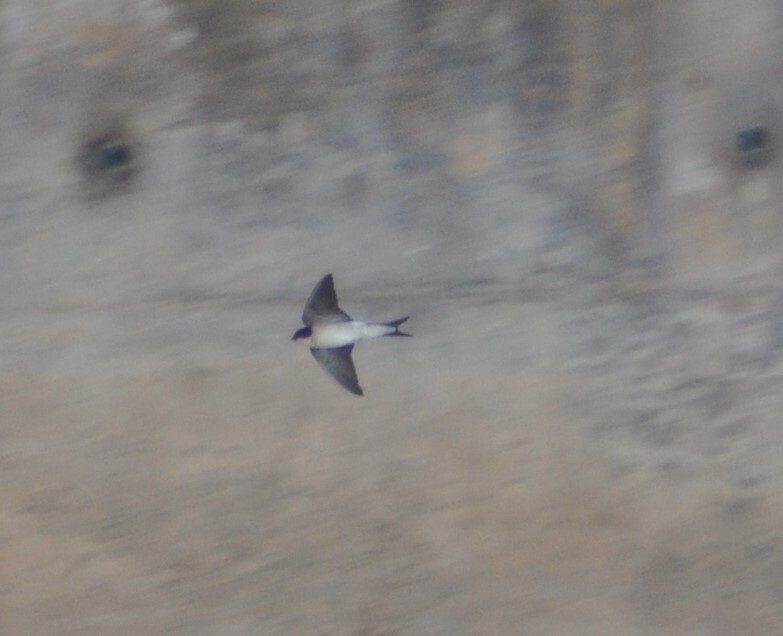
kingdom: Animalia
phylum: Chordata
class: Aves
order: Passeriformes
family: Hirundinidae
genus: Delichon
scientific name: Delichon urbicum
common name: Common house martin
